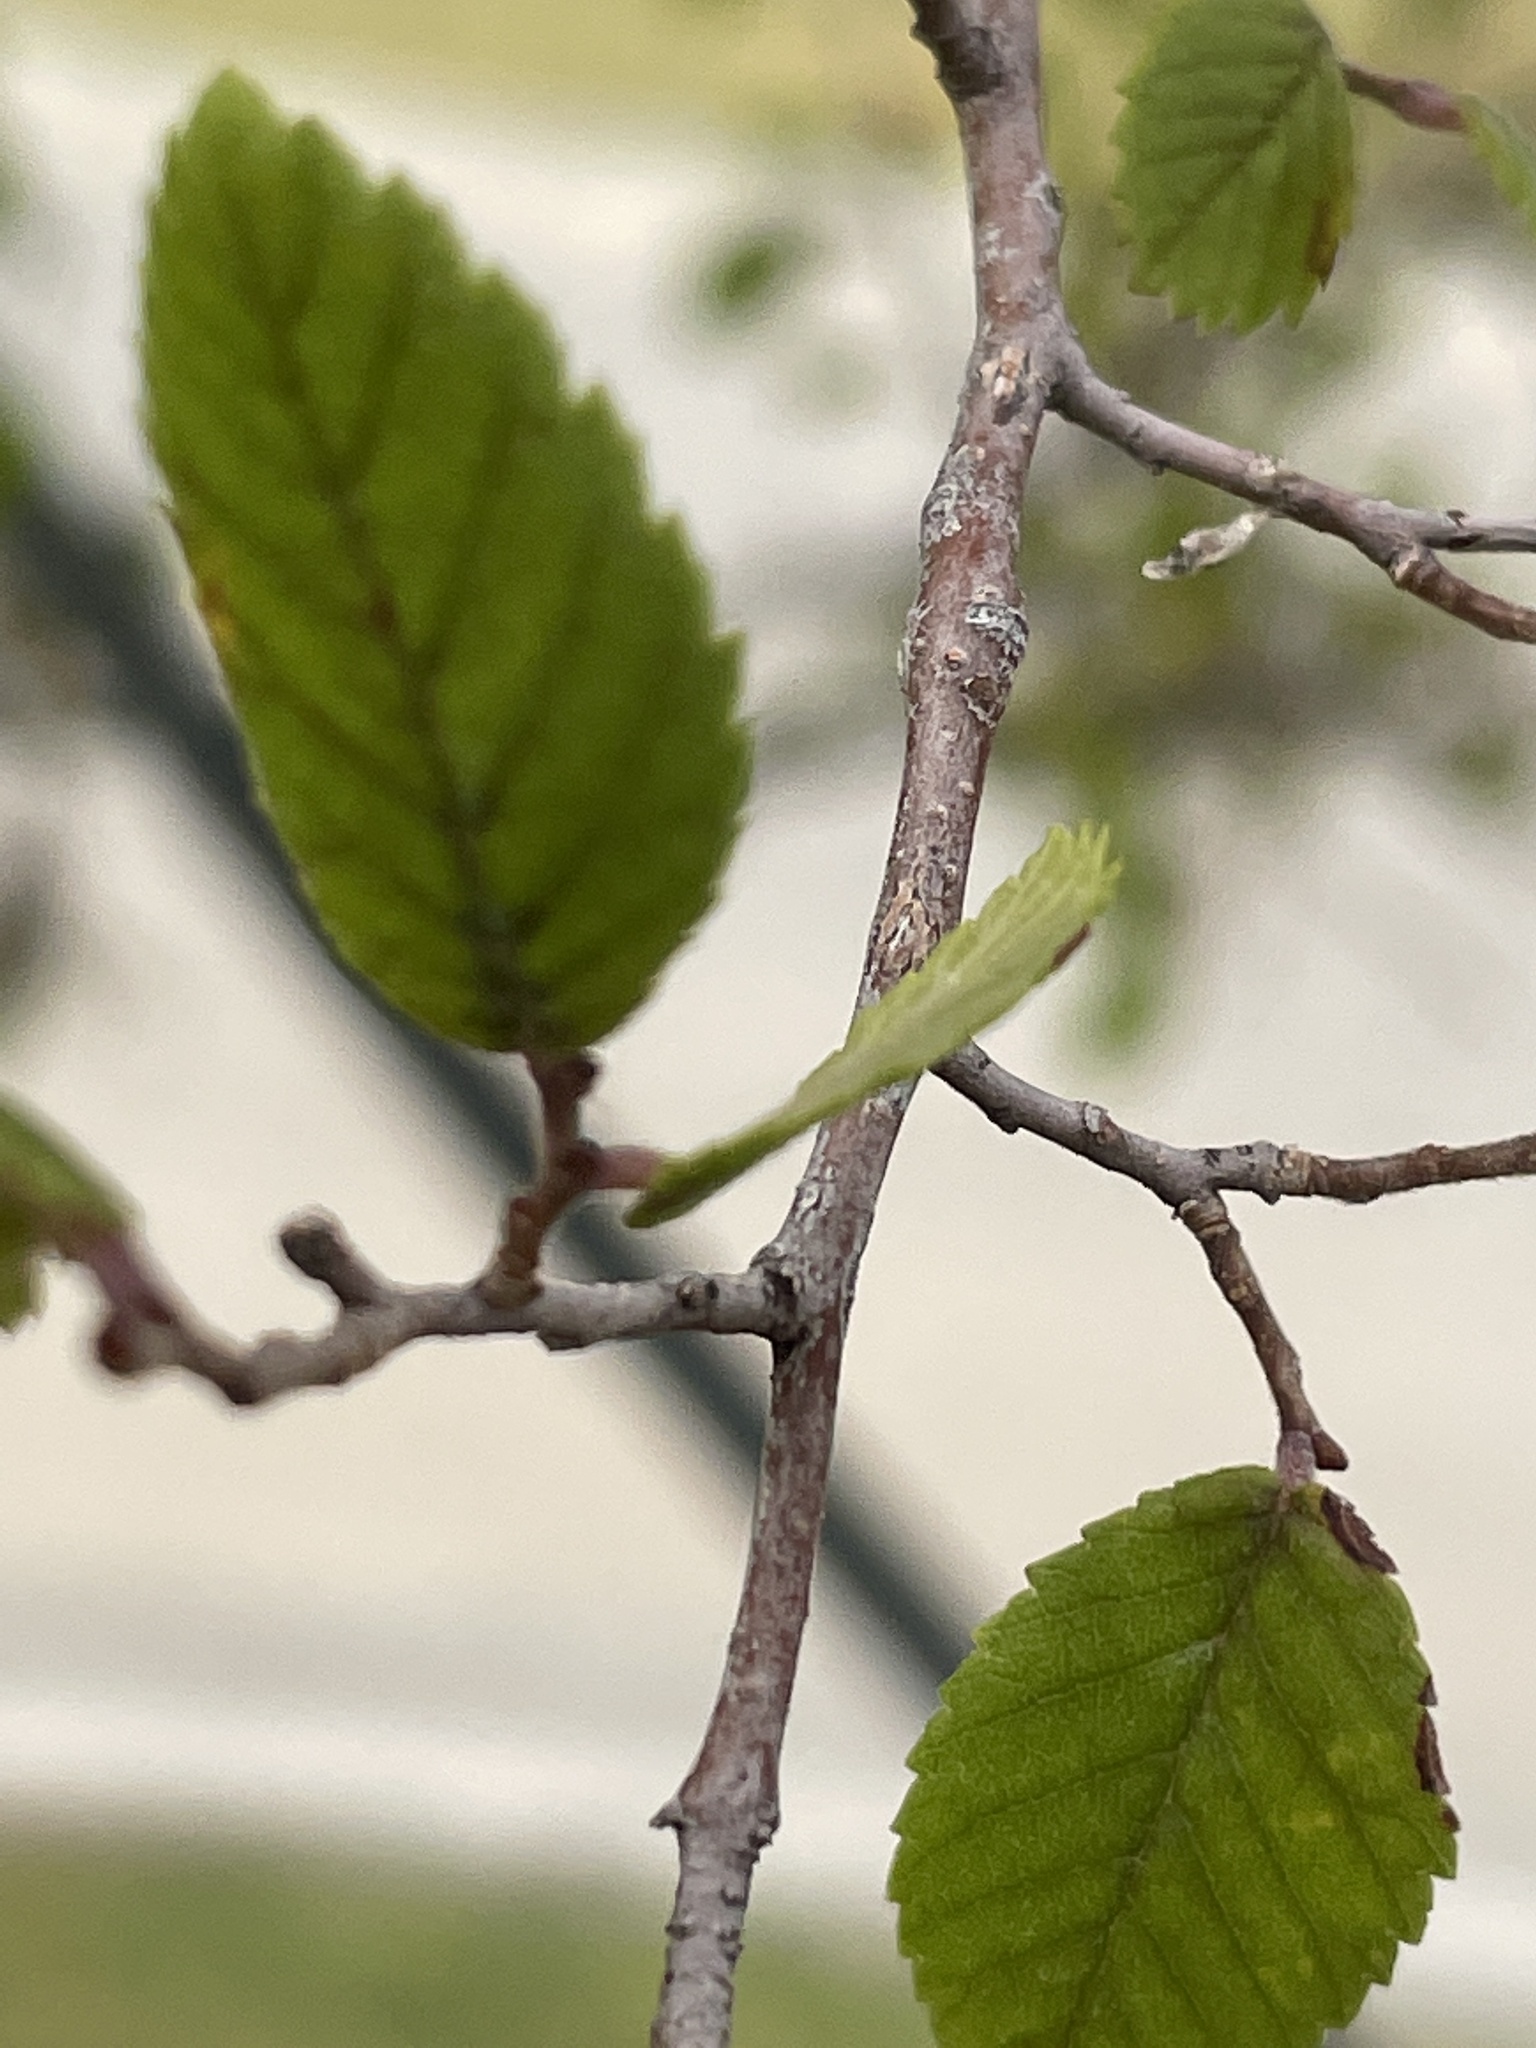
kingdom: Plantae
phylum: Tracheophyta
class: Magnoliopsida
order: Rosales
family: Ulmaceae
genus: Ulmus
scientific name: Ulmus crassifolia
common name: Basket elm
